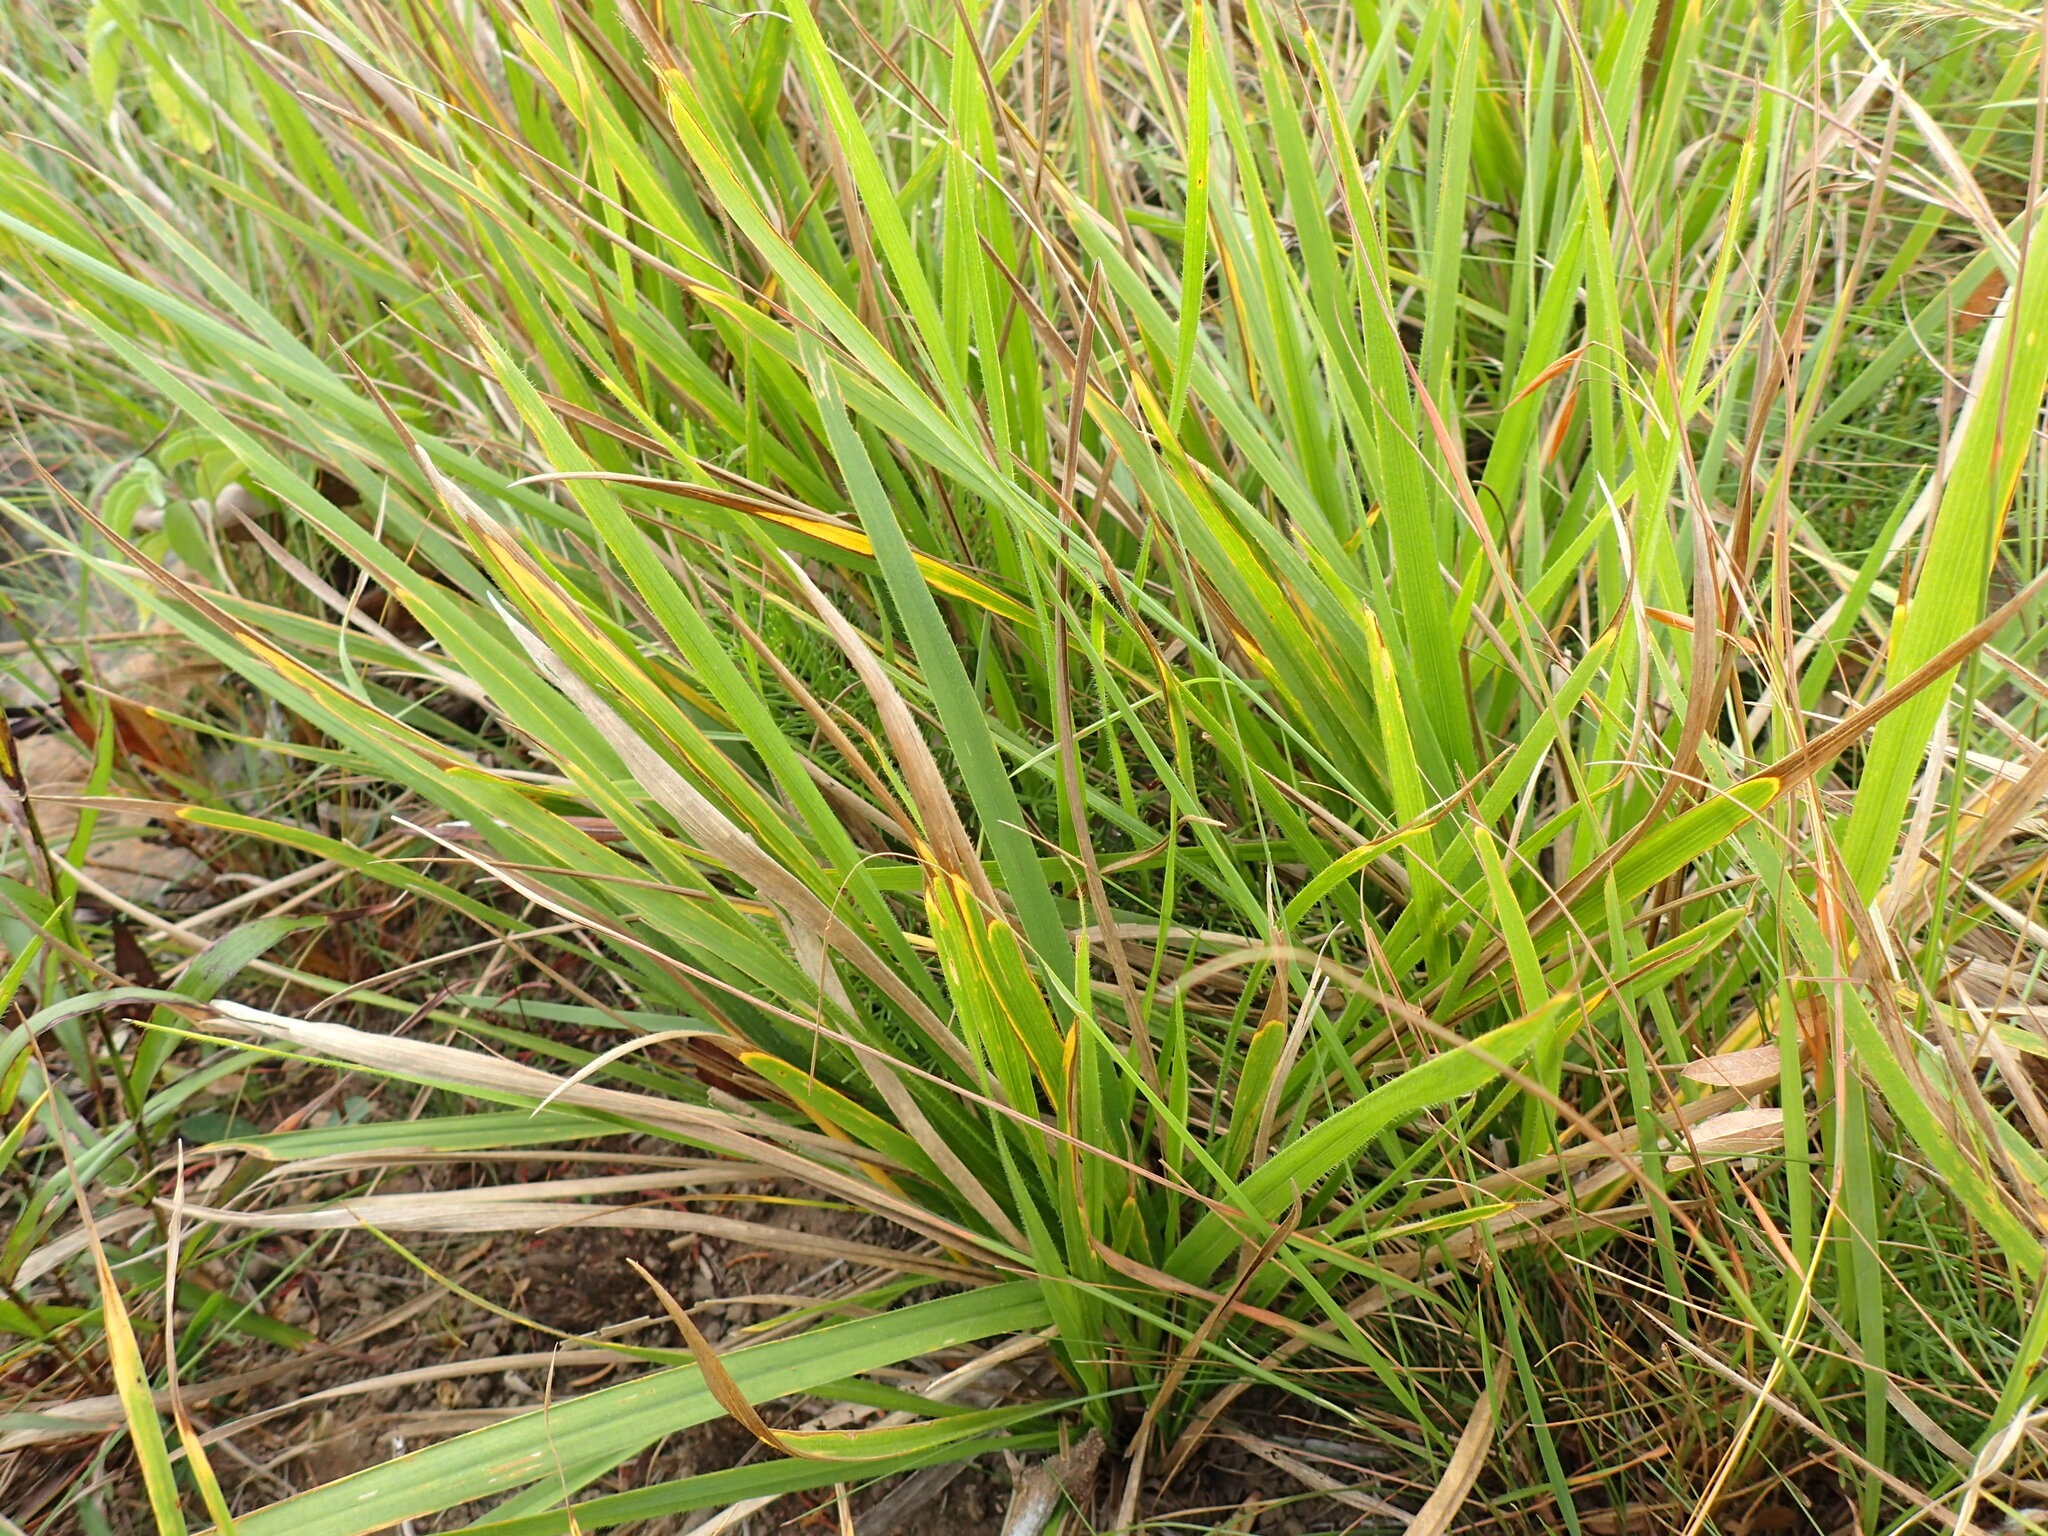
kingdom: Plantae
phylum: Tracheophyta
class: Liliopsida
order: Asparagales
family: Iridaceae
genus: Aristea
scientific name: Aristea abyssinica
